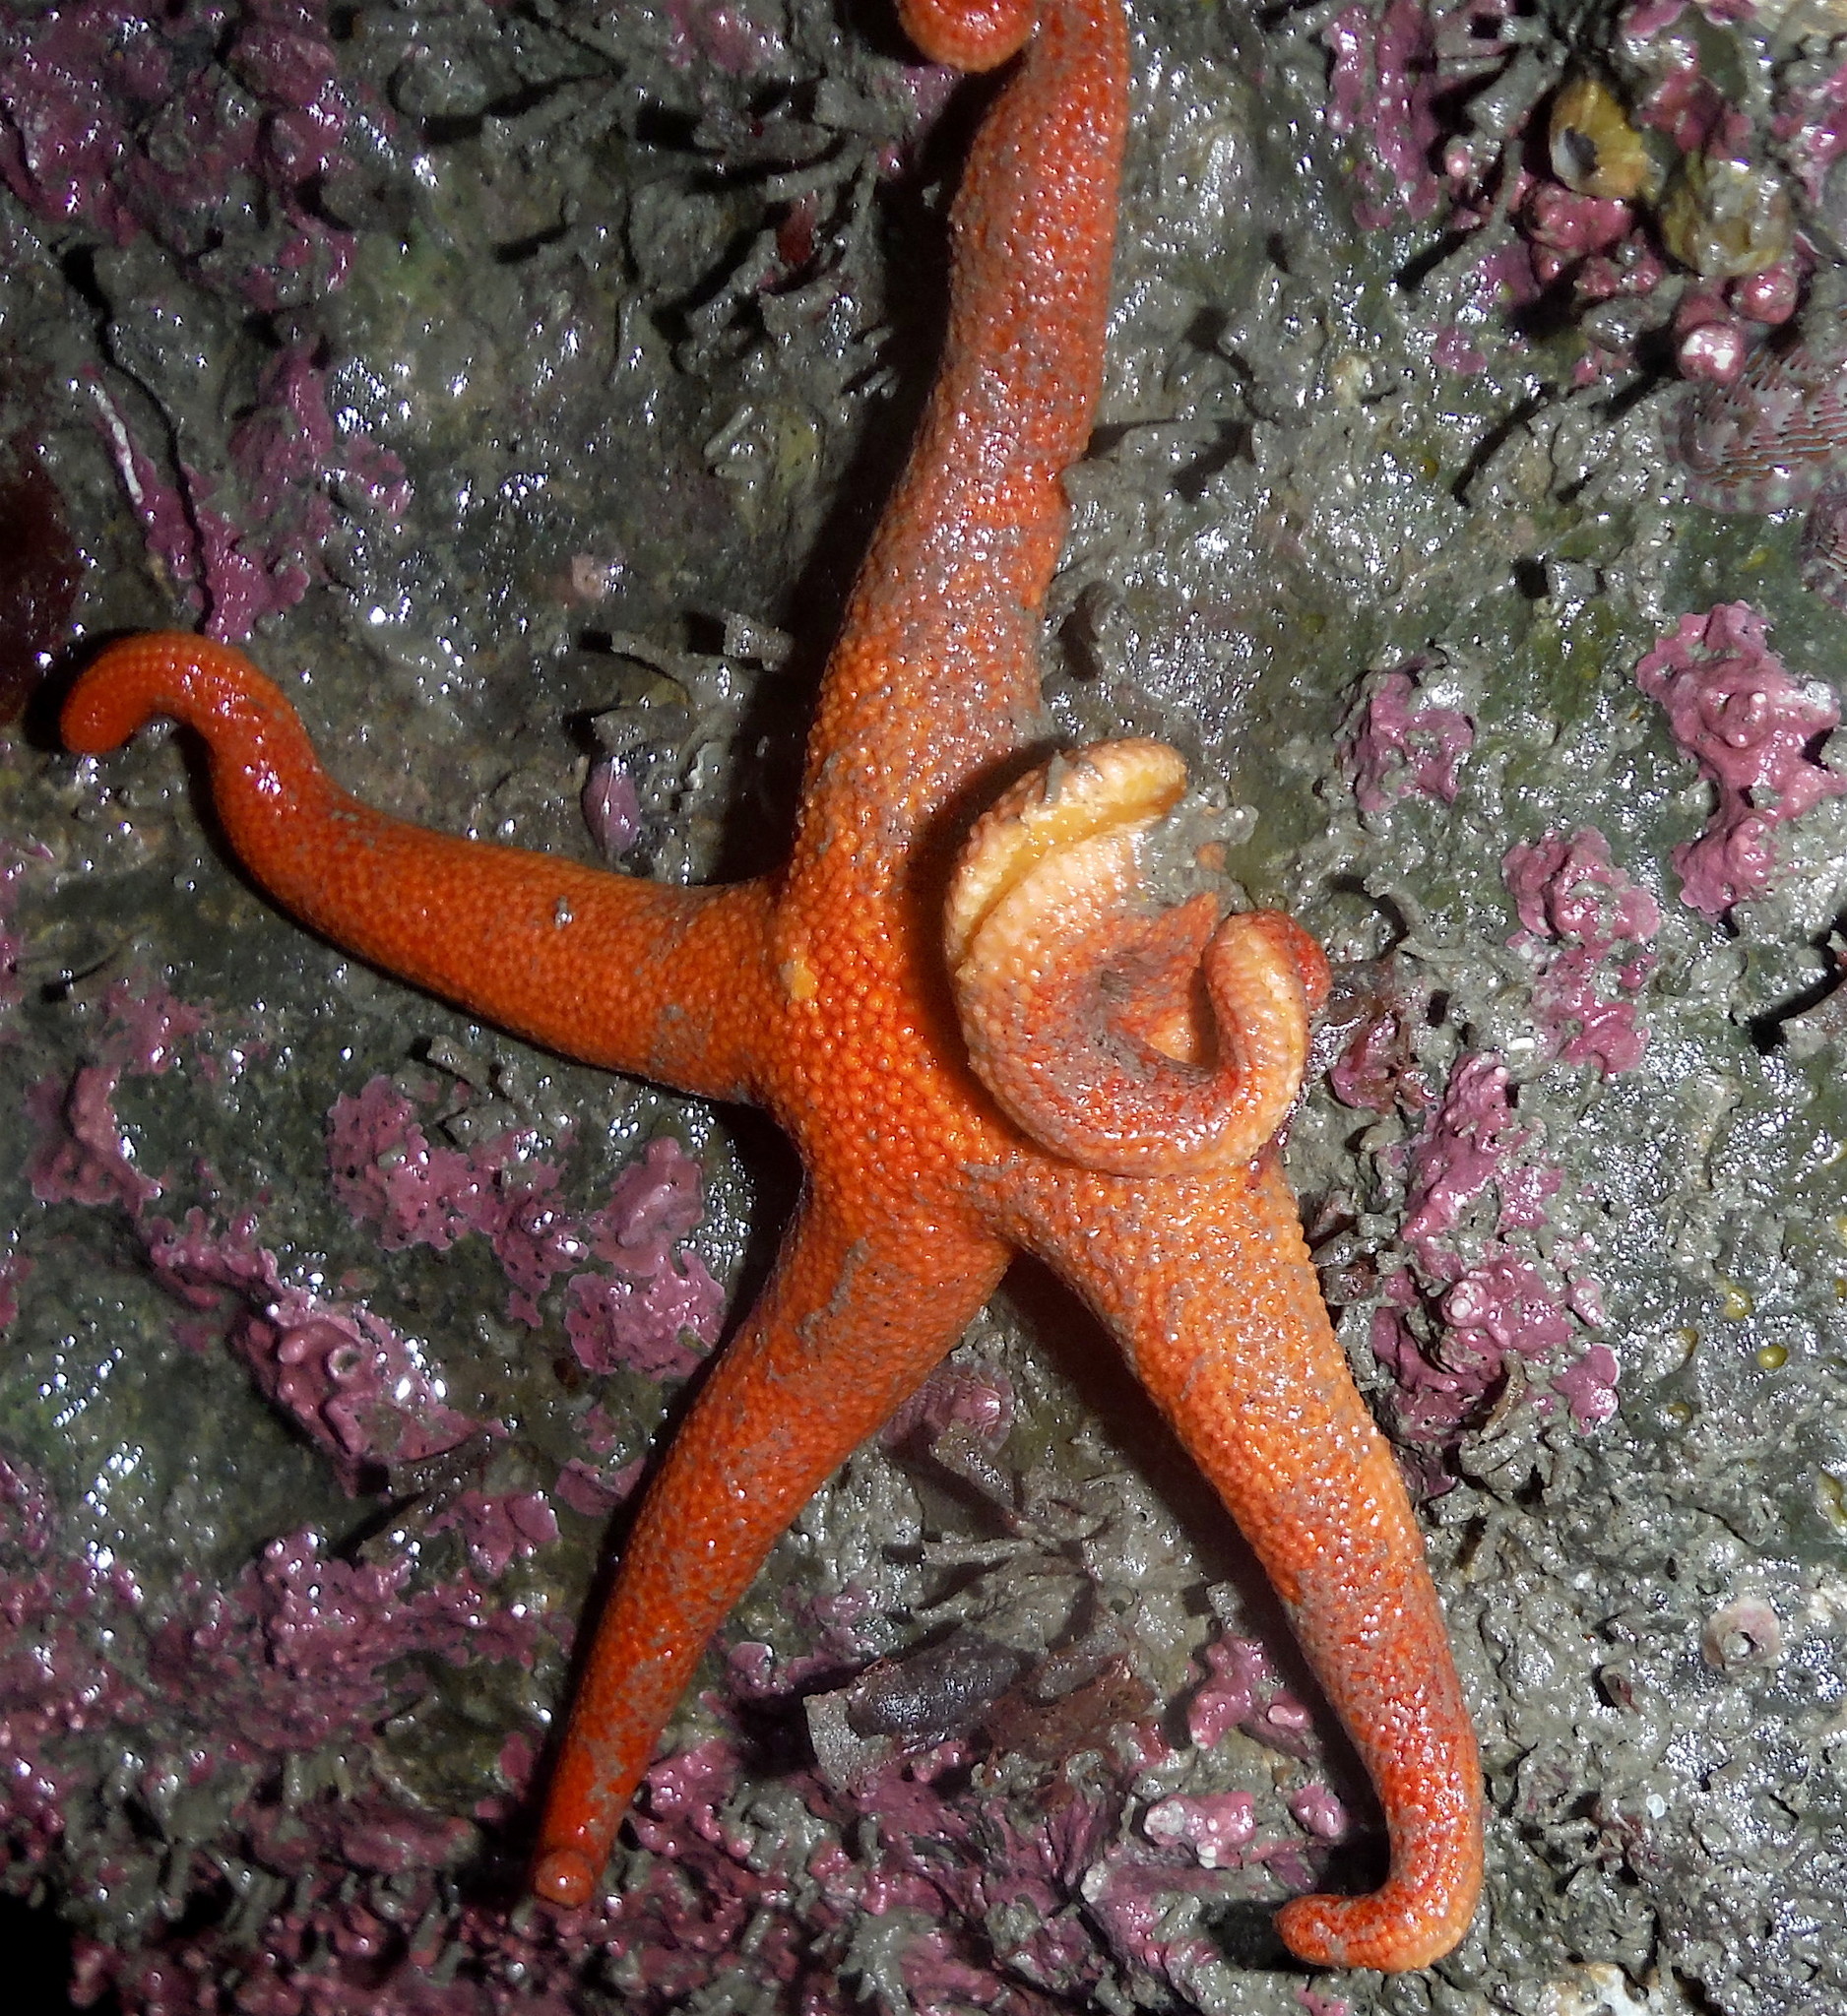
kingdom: Animalia
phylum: Echinodermata
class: Asteroidea
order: Spinulosida
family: Echinasteridae
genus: Henricia
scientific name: Henricia leviuscula
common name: Pacific blood star
